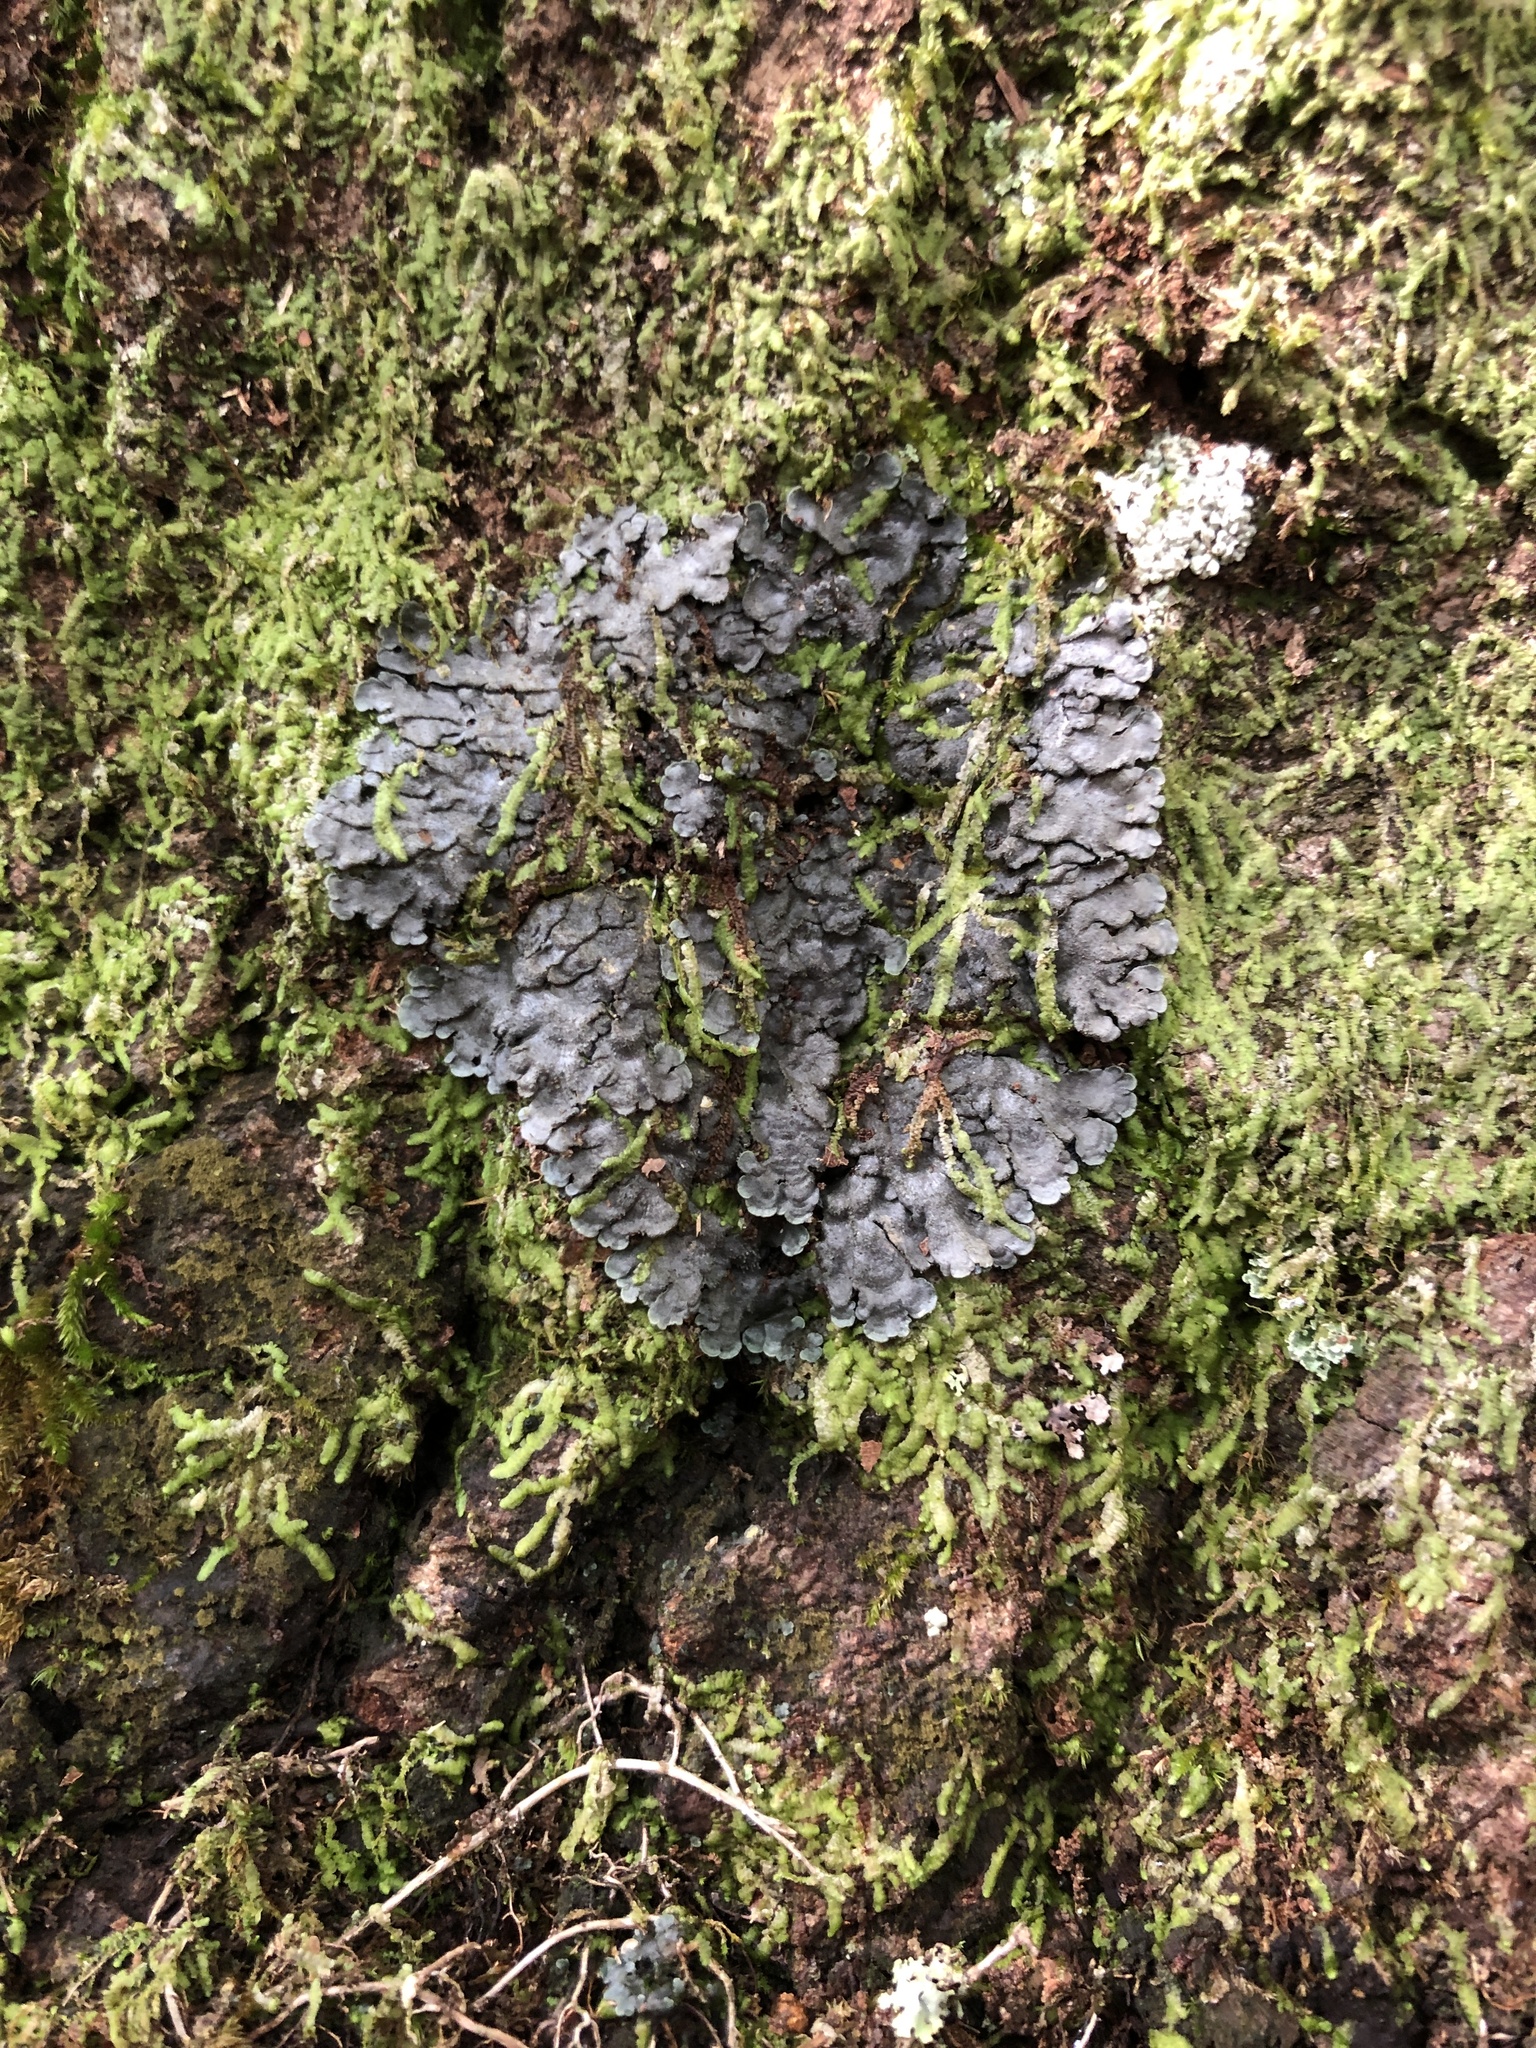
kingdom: Fungi
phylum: Ascomycota
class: Lecanoromycetes
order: Peltigerales
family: Coccocarpiaceae
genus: Coccocarpia
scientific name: Coccocarpia palmicola
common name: Salted shell lichen
